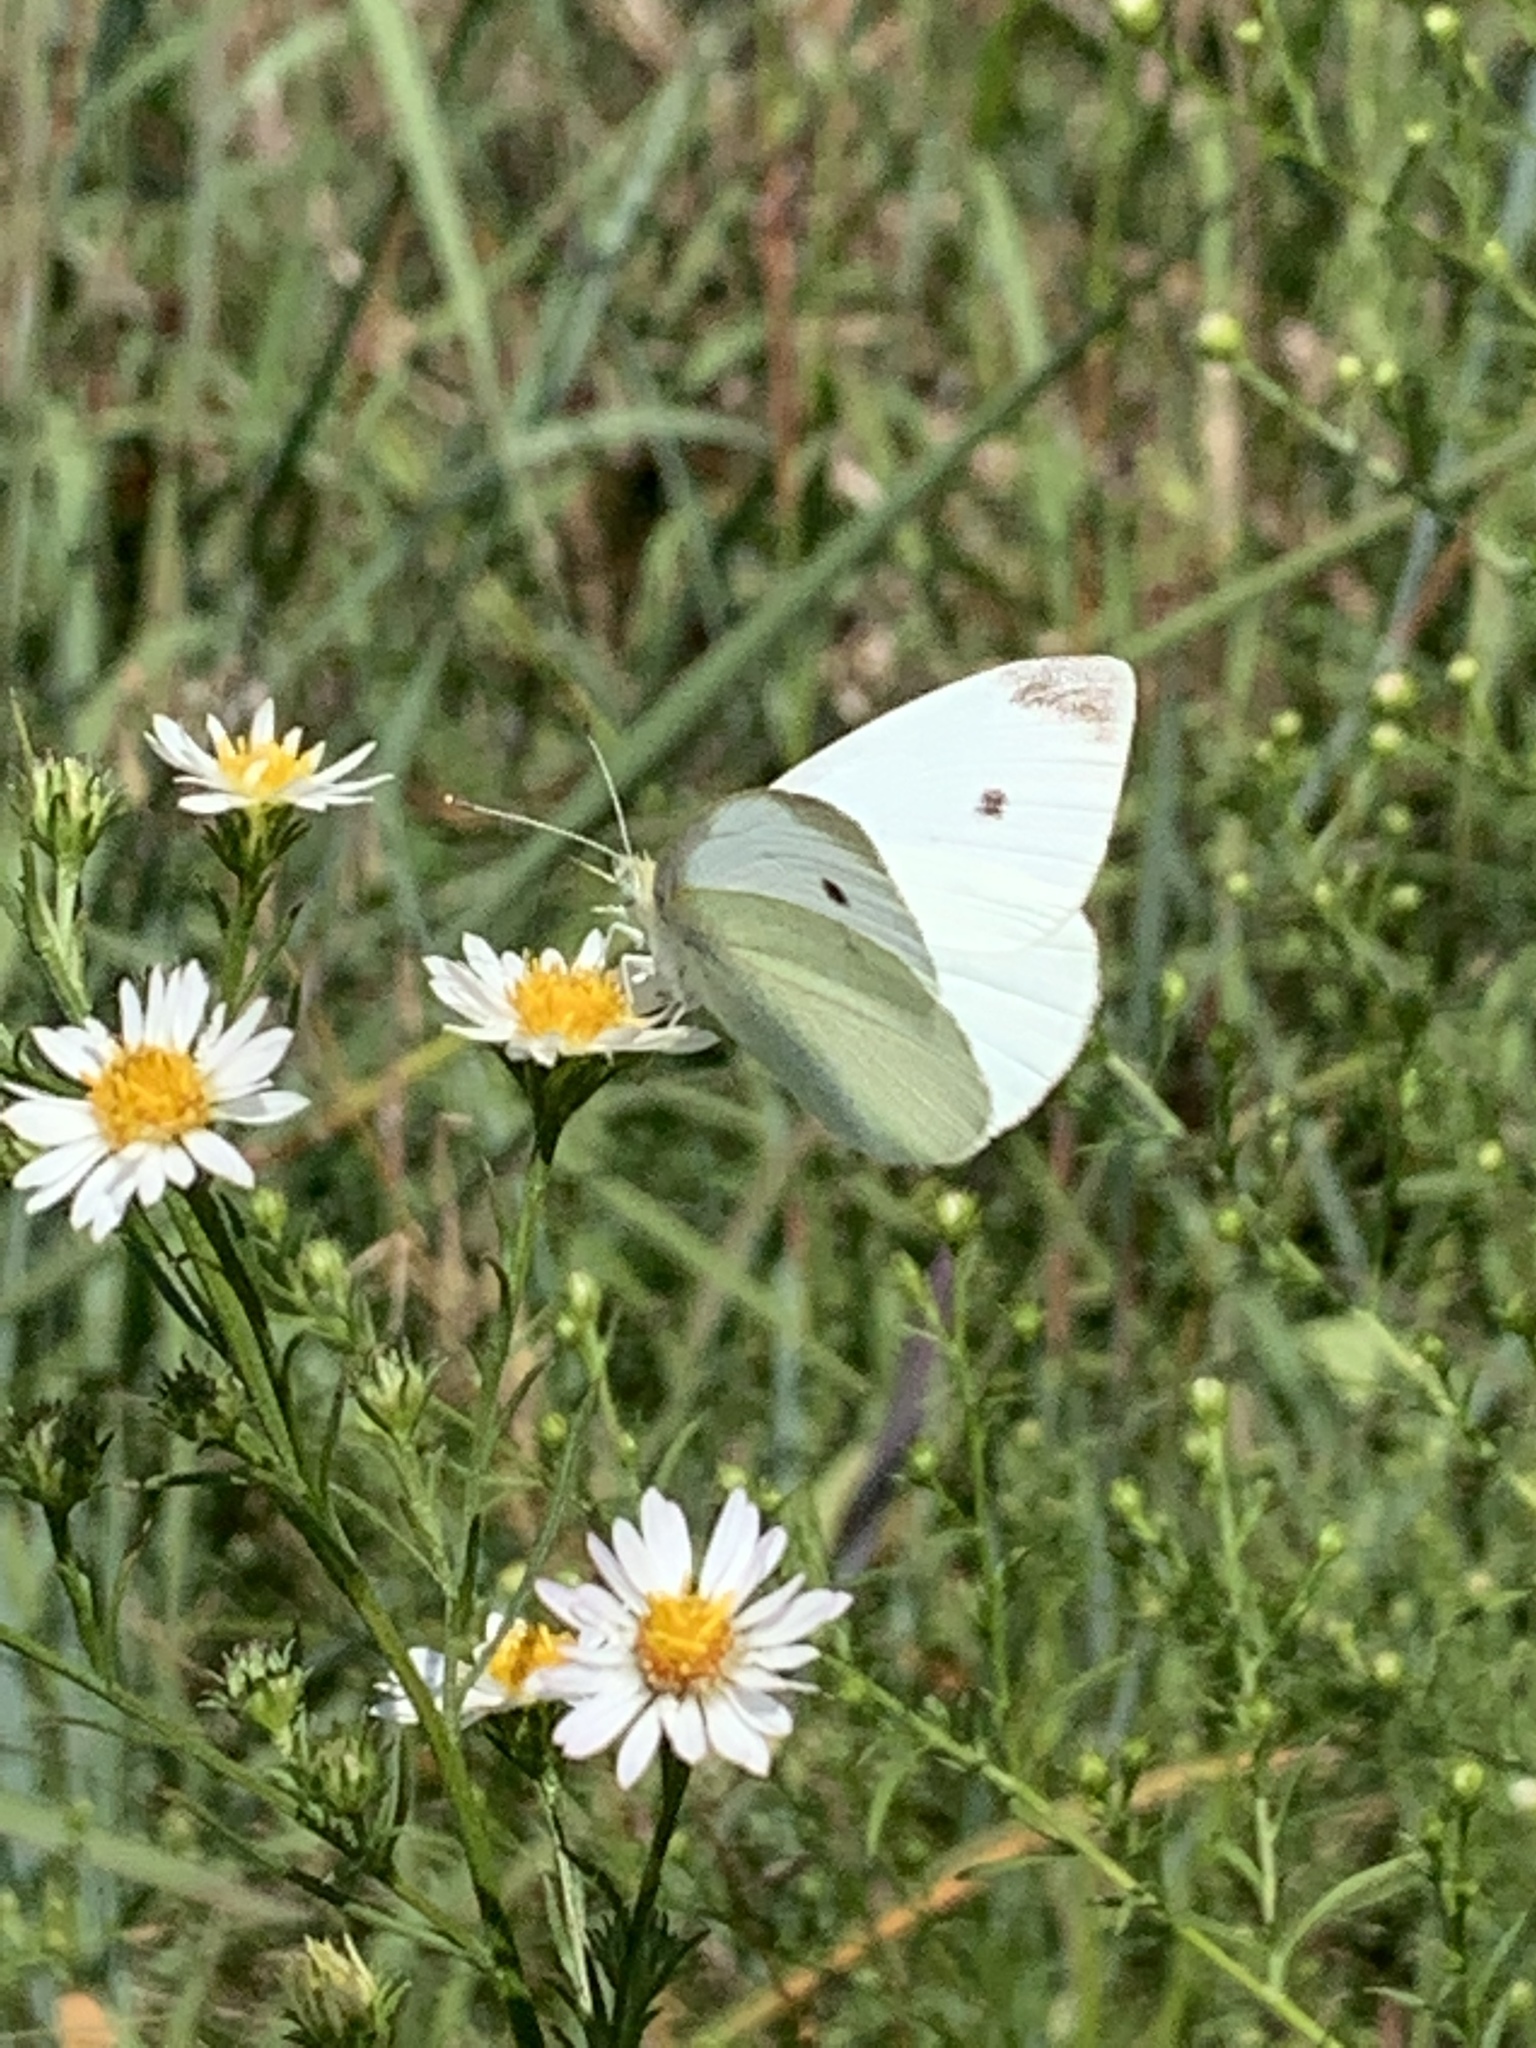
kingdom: Animalia
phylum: Arthropoda
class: Insecta
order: Lepidoptera
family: Pieridae
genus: Pieris
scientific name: Pieris rapae
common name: Small white
